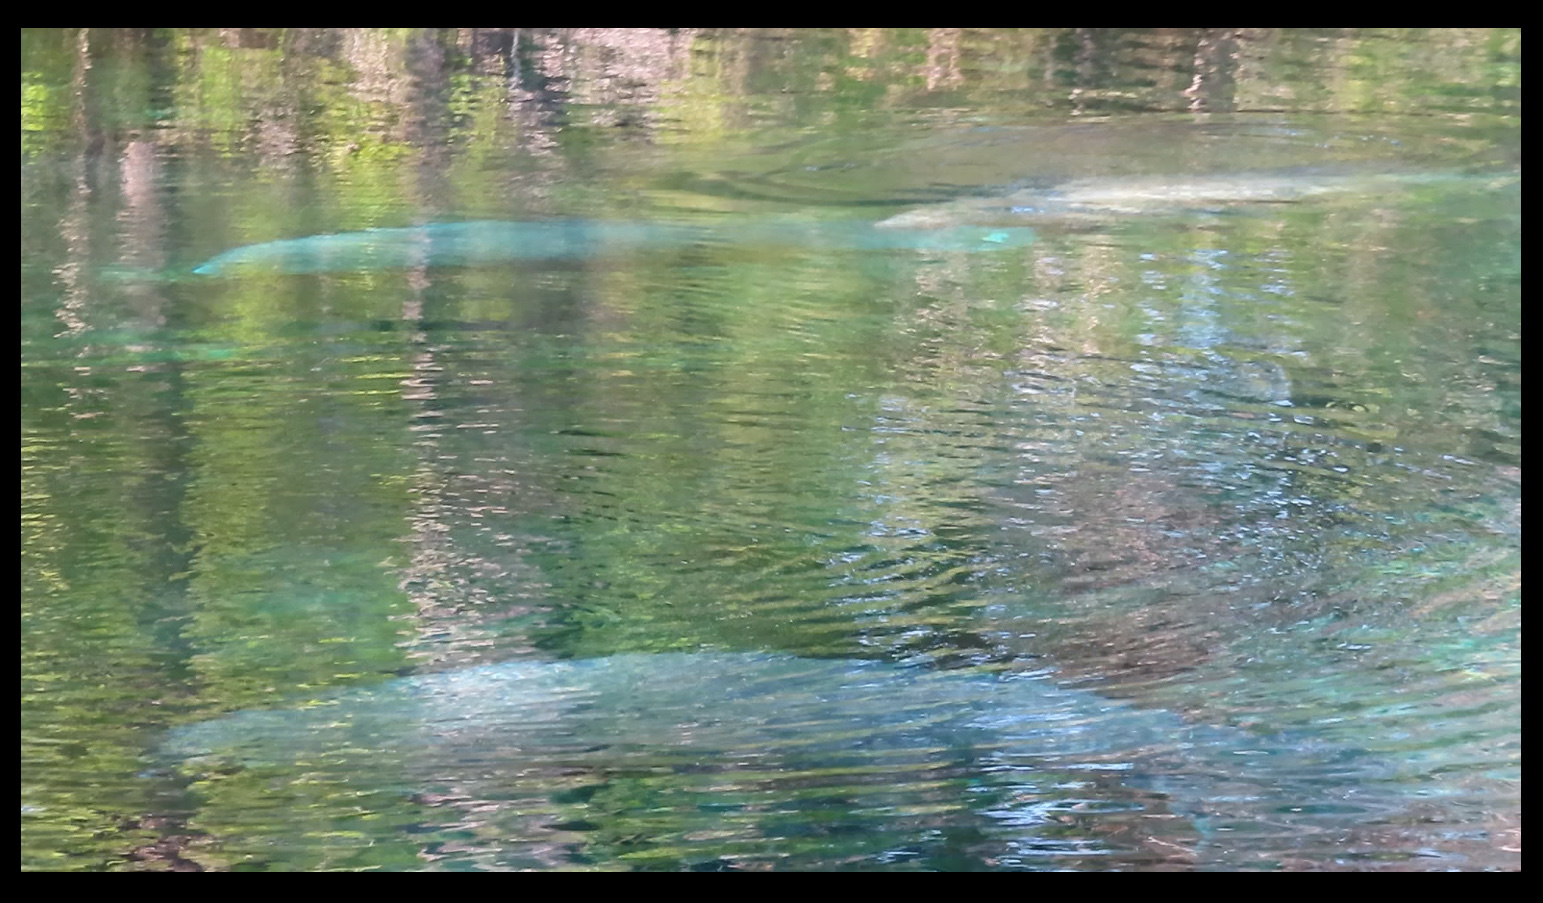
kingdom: Animalia
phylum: Chordata
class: Mammalia
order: Sirenia
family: Trichechidae
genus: Trichechus
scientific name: Trichechus manatus
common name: West indian manatee
